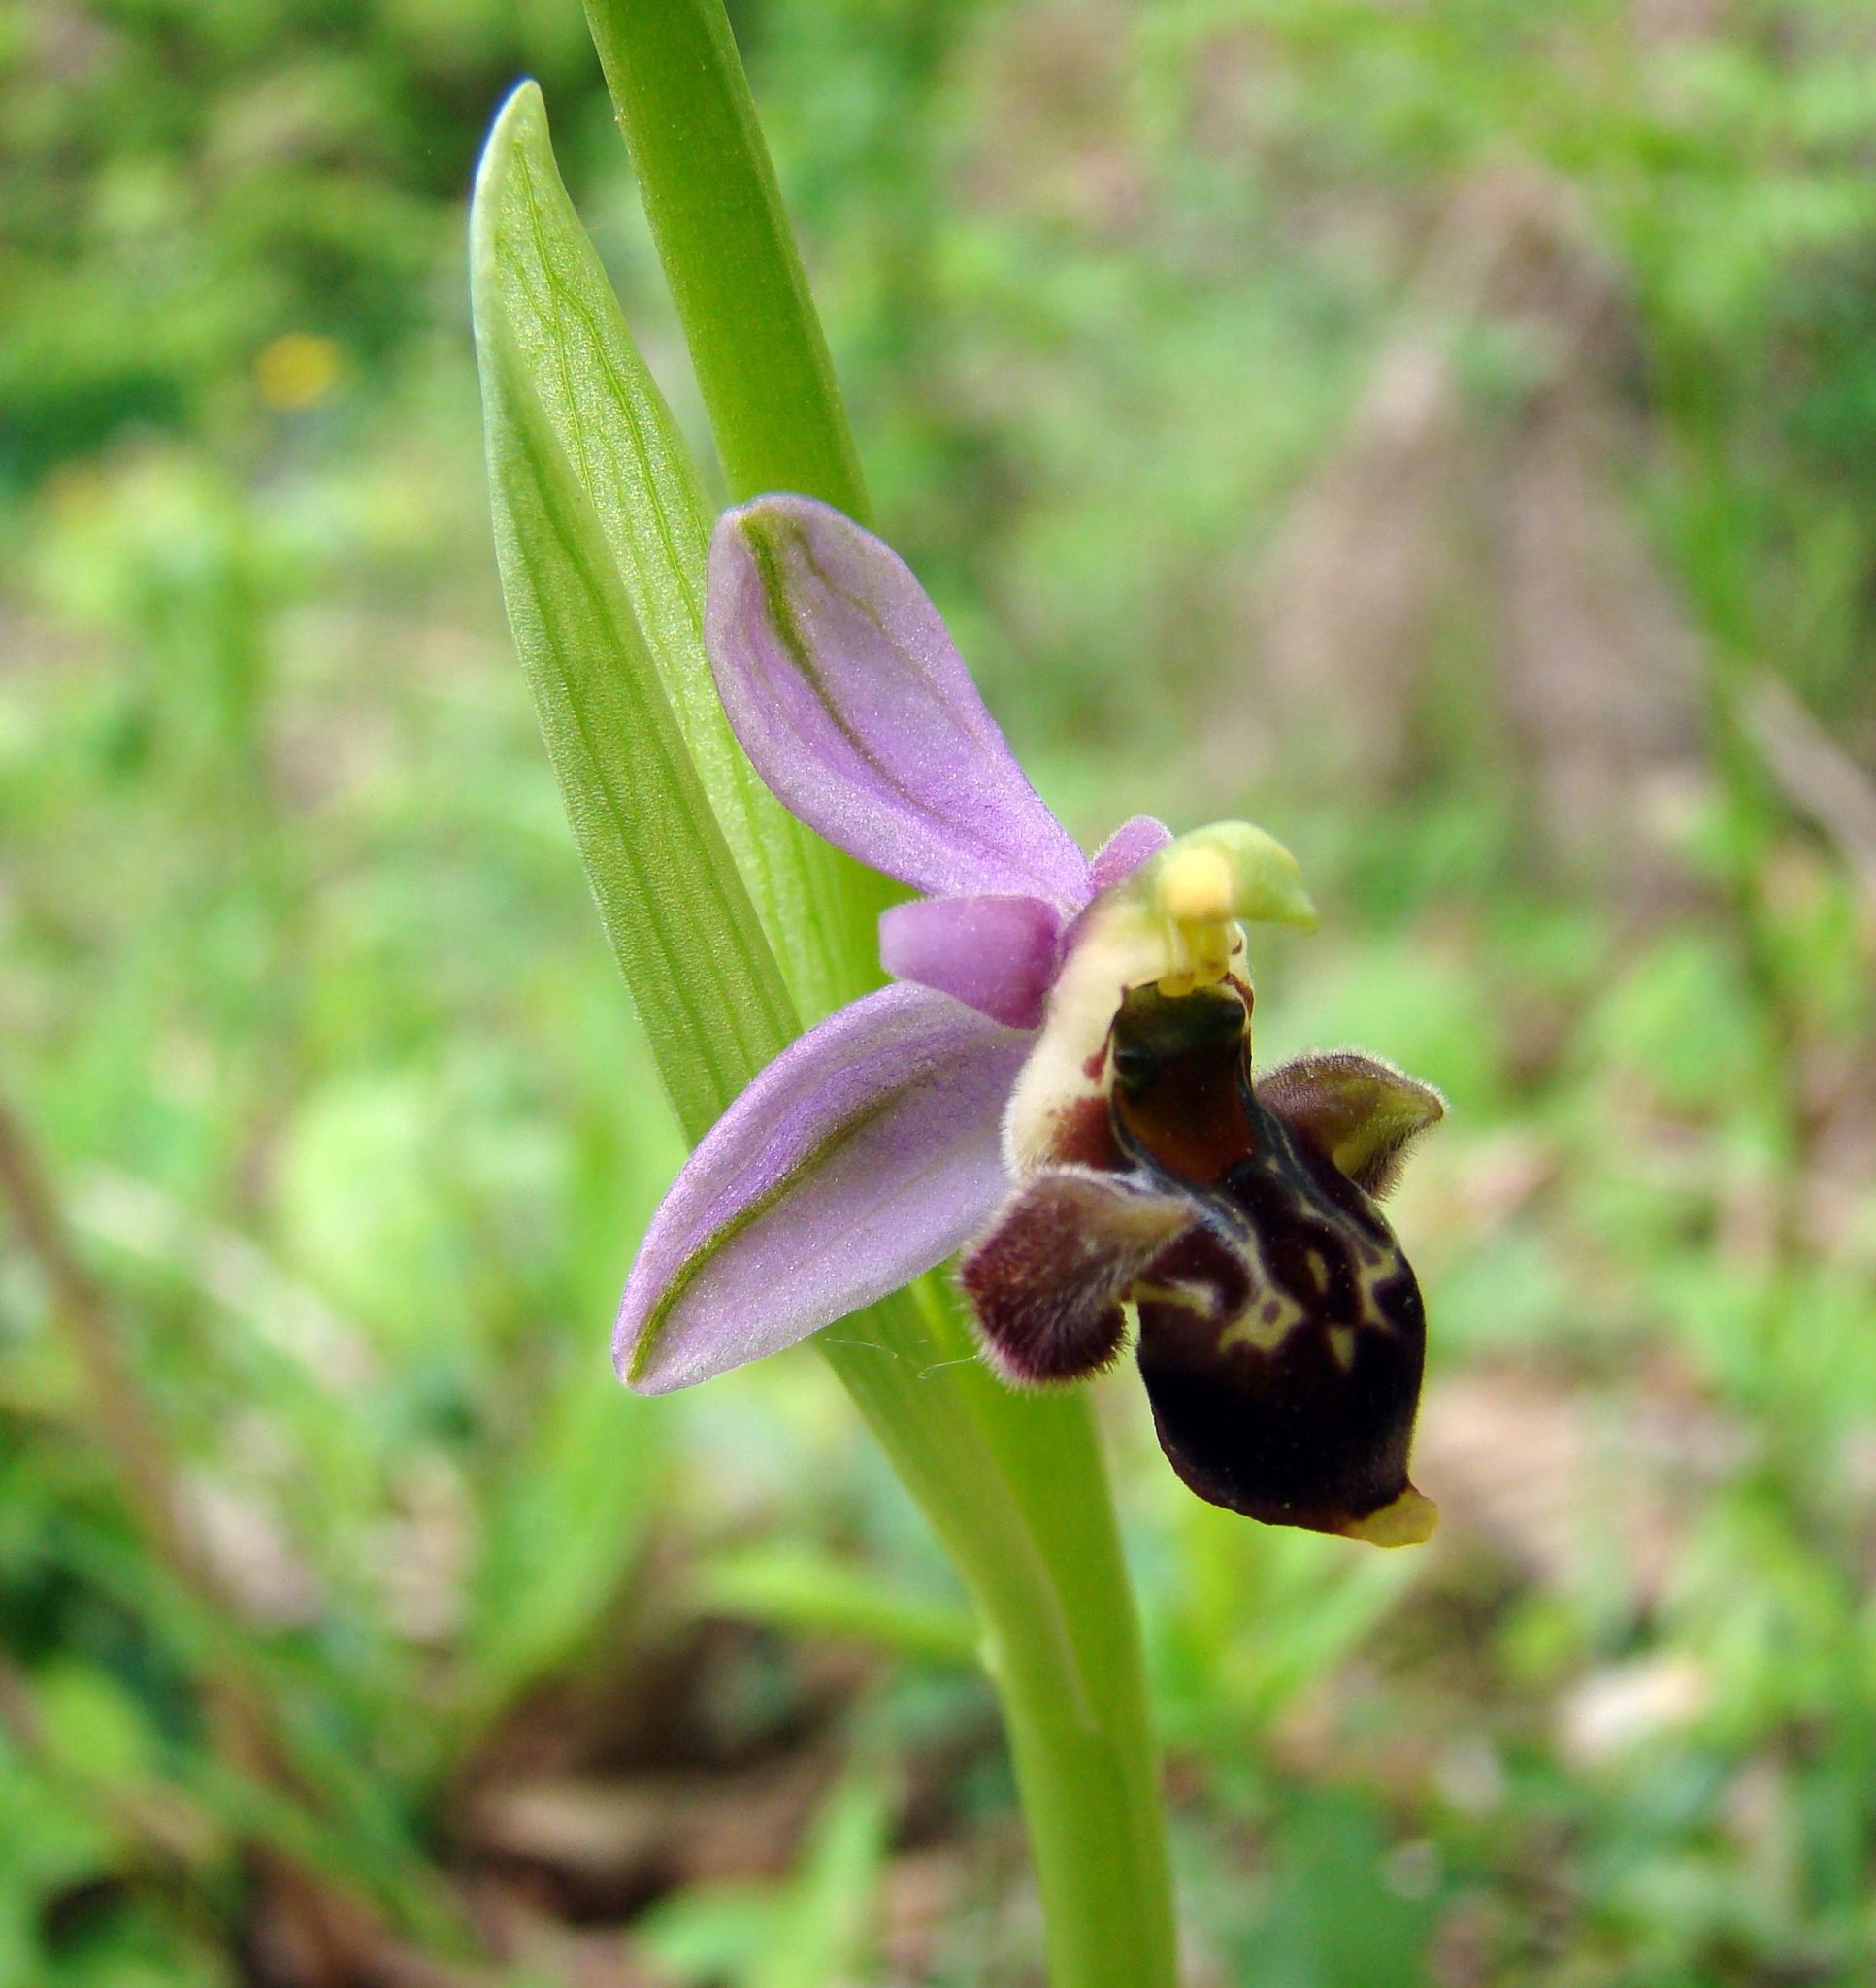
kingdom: Plantae
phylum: Tracheophyta
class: Liliopsida
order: Asparagales
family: Orchidaceae
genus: Ophrys
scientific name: Ophrys
